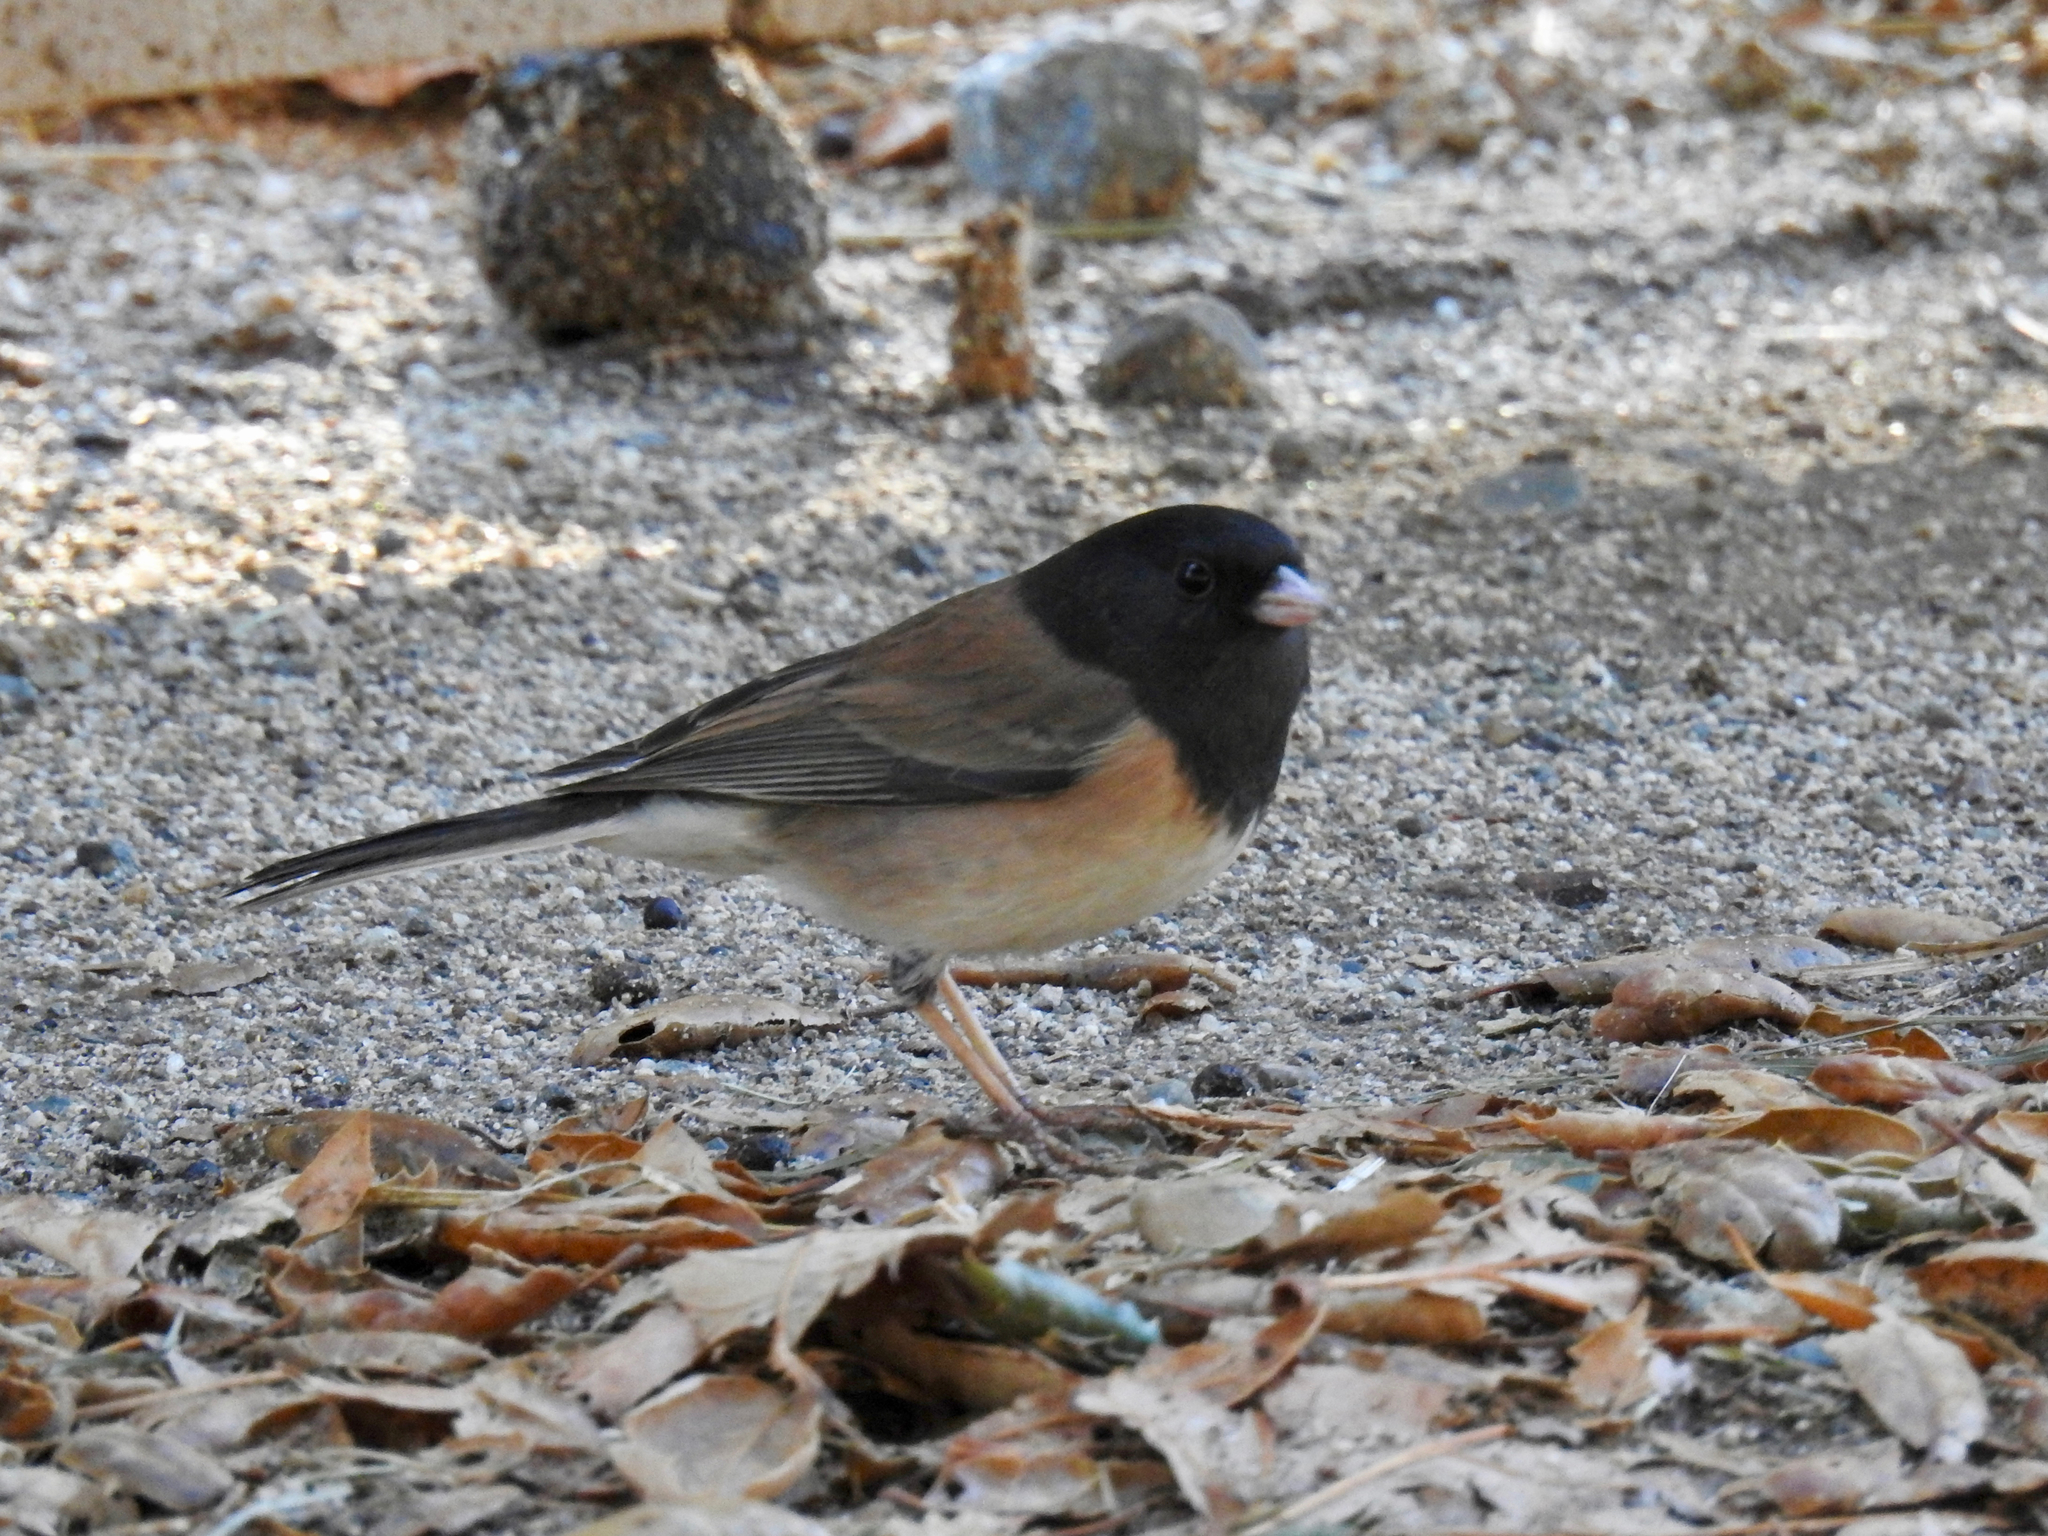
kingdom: Animalia
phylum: Chordata
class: Aves
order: Passeriformes
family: Passerellidae
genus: Junco
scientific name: Junco hyemalis
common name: Dark-eyed junco
